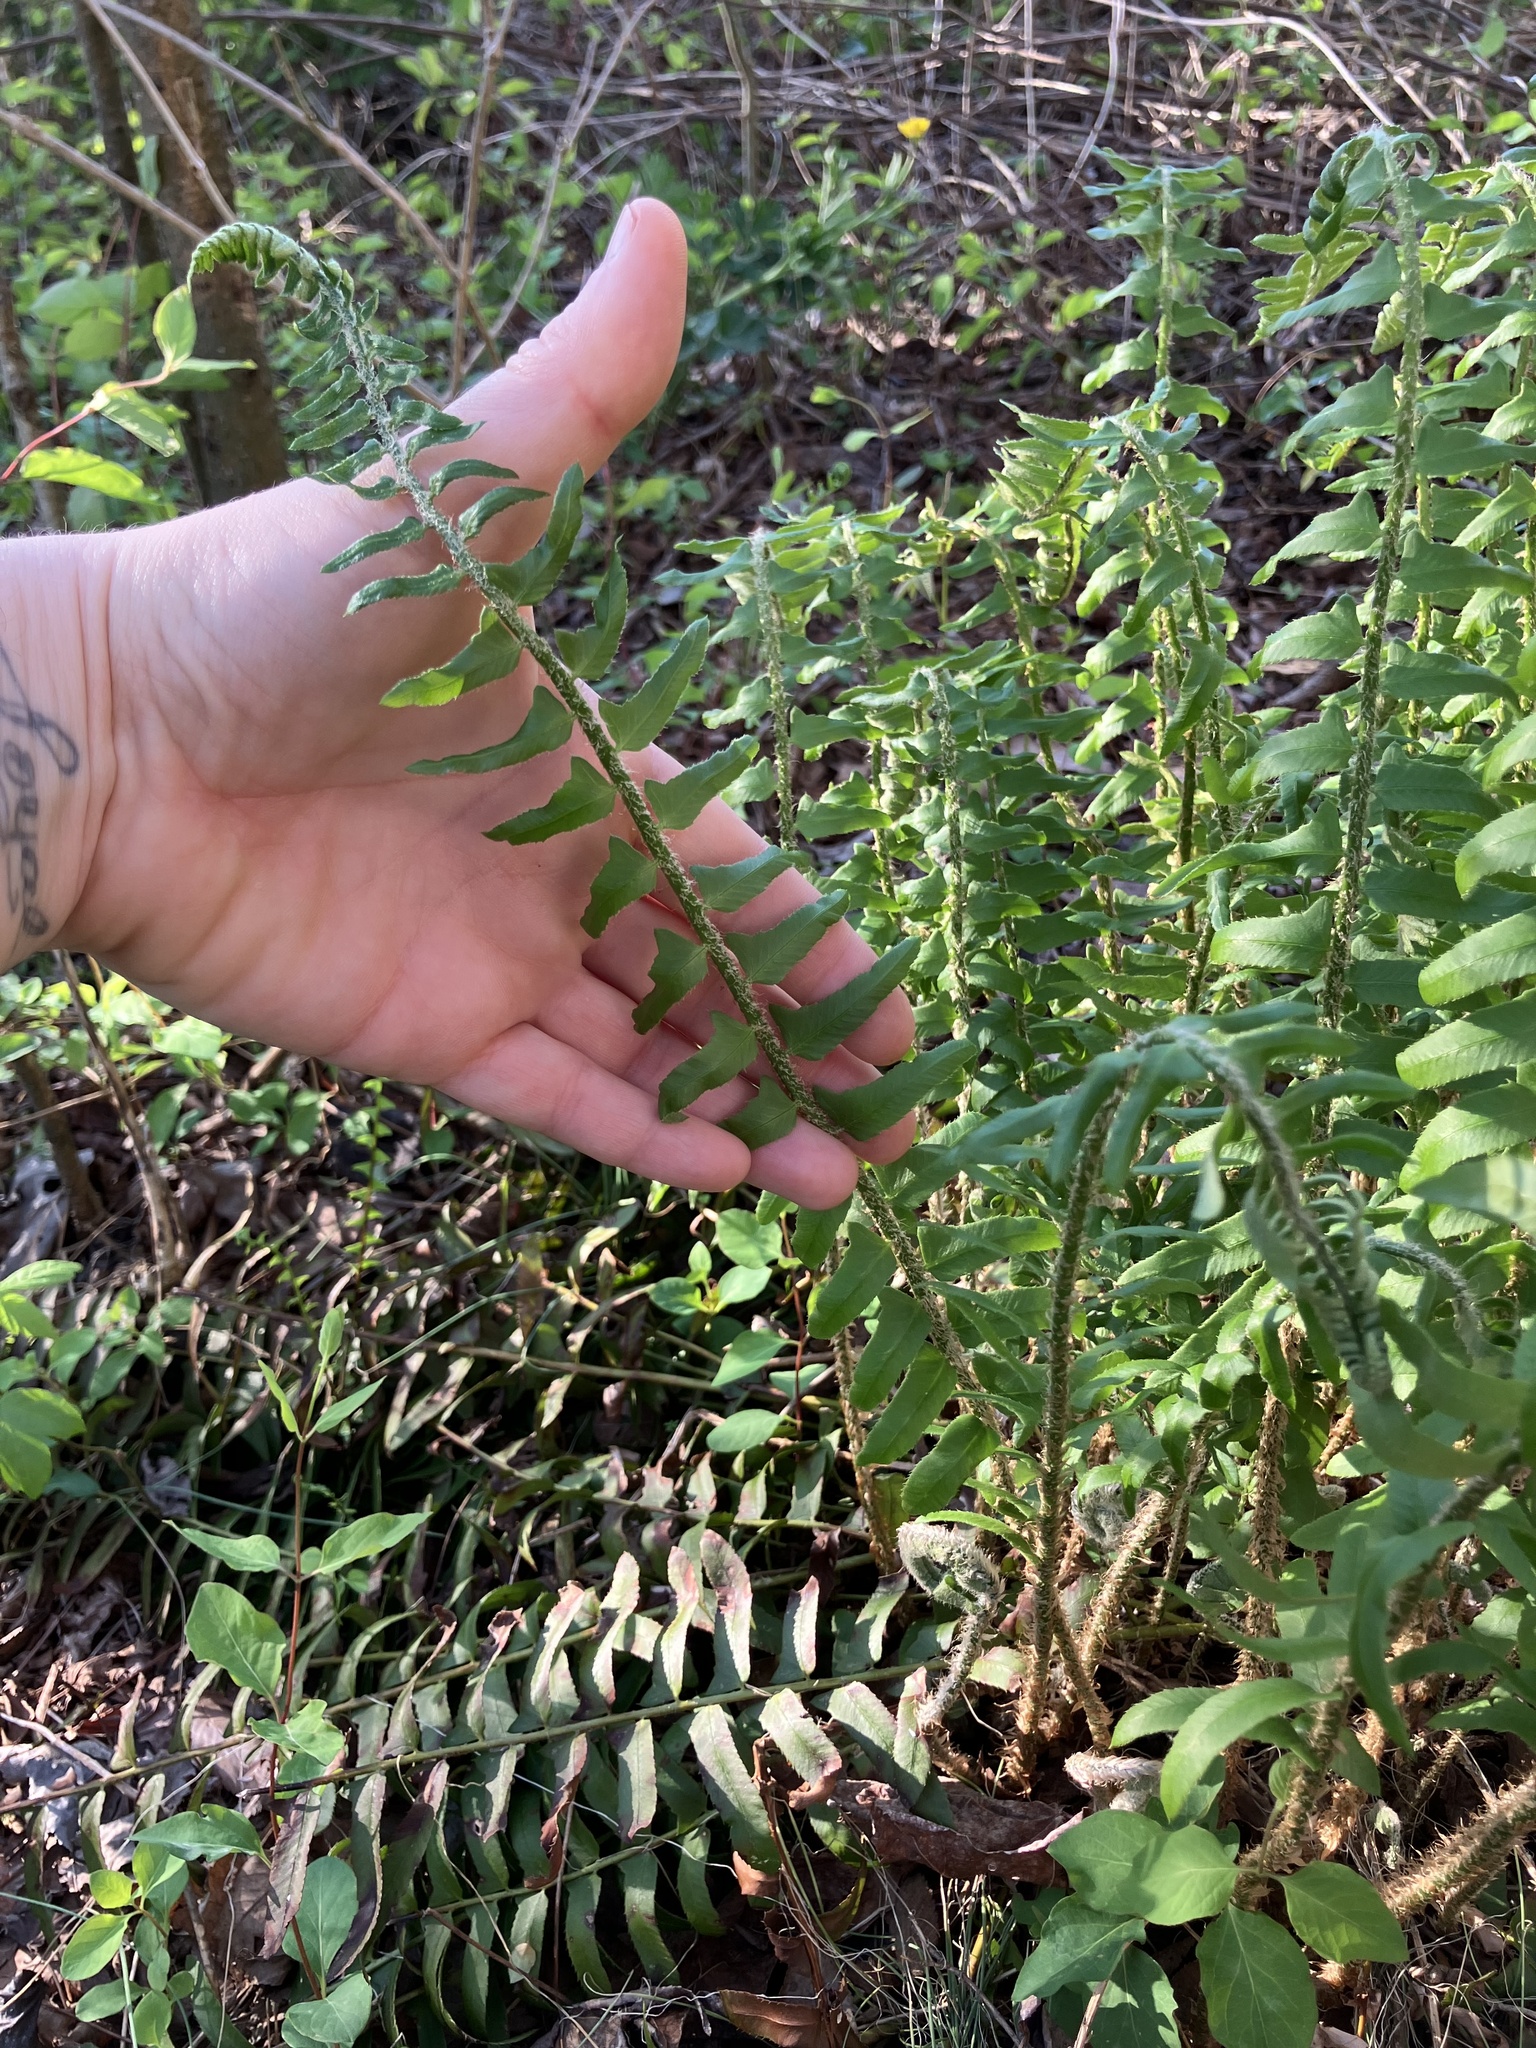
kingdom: Plantae
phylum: Tracheophyta
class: Polypodiopsida
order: Polypodiales
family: Dryopteridaceae
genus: Polystichum
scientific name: Polystichum acrostichoides
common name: Christmas fern
